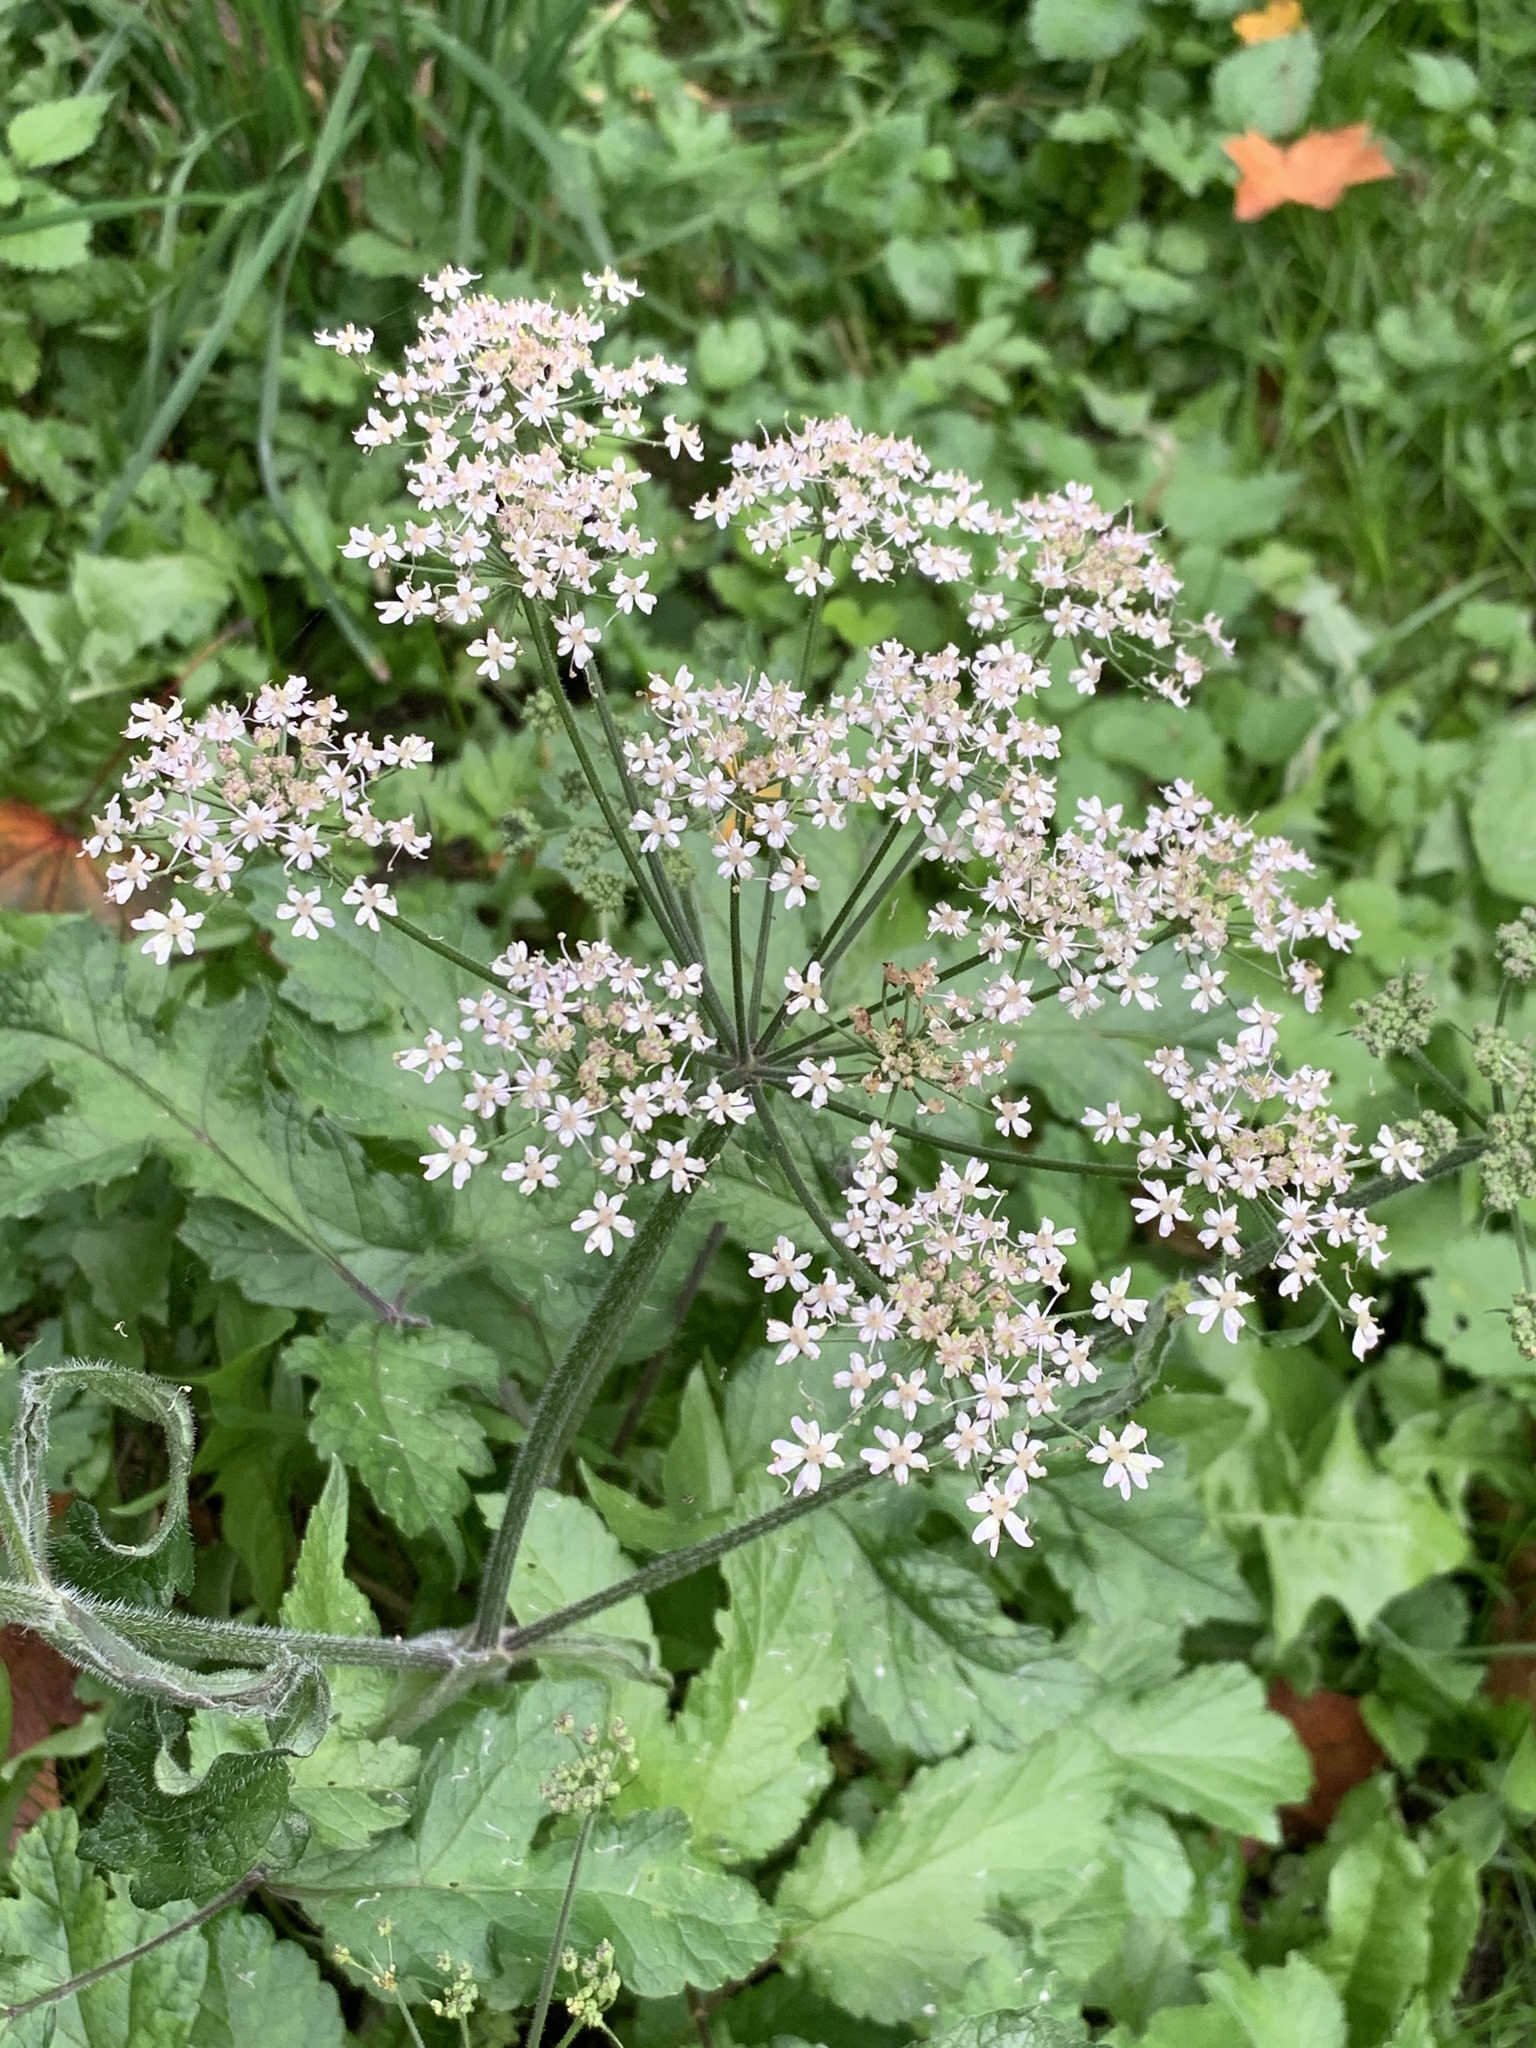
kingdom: Plantae
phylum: Tracheophyta
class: Magnoliopsida
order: Apiales
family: Apiaceae
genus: Heracleum
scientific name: Heracleum sphondylium
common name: Hogweed
